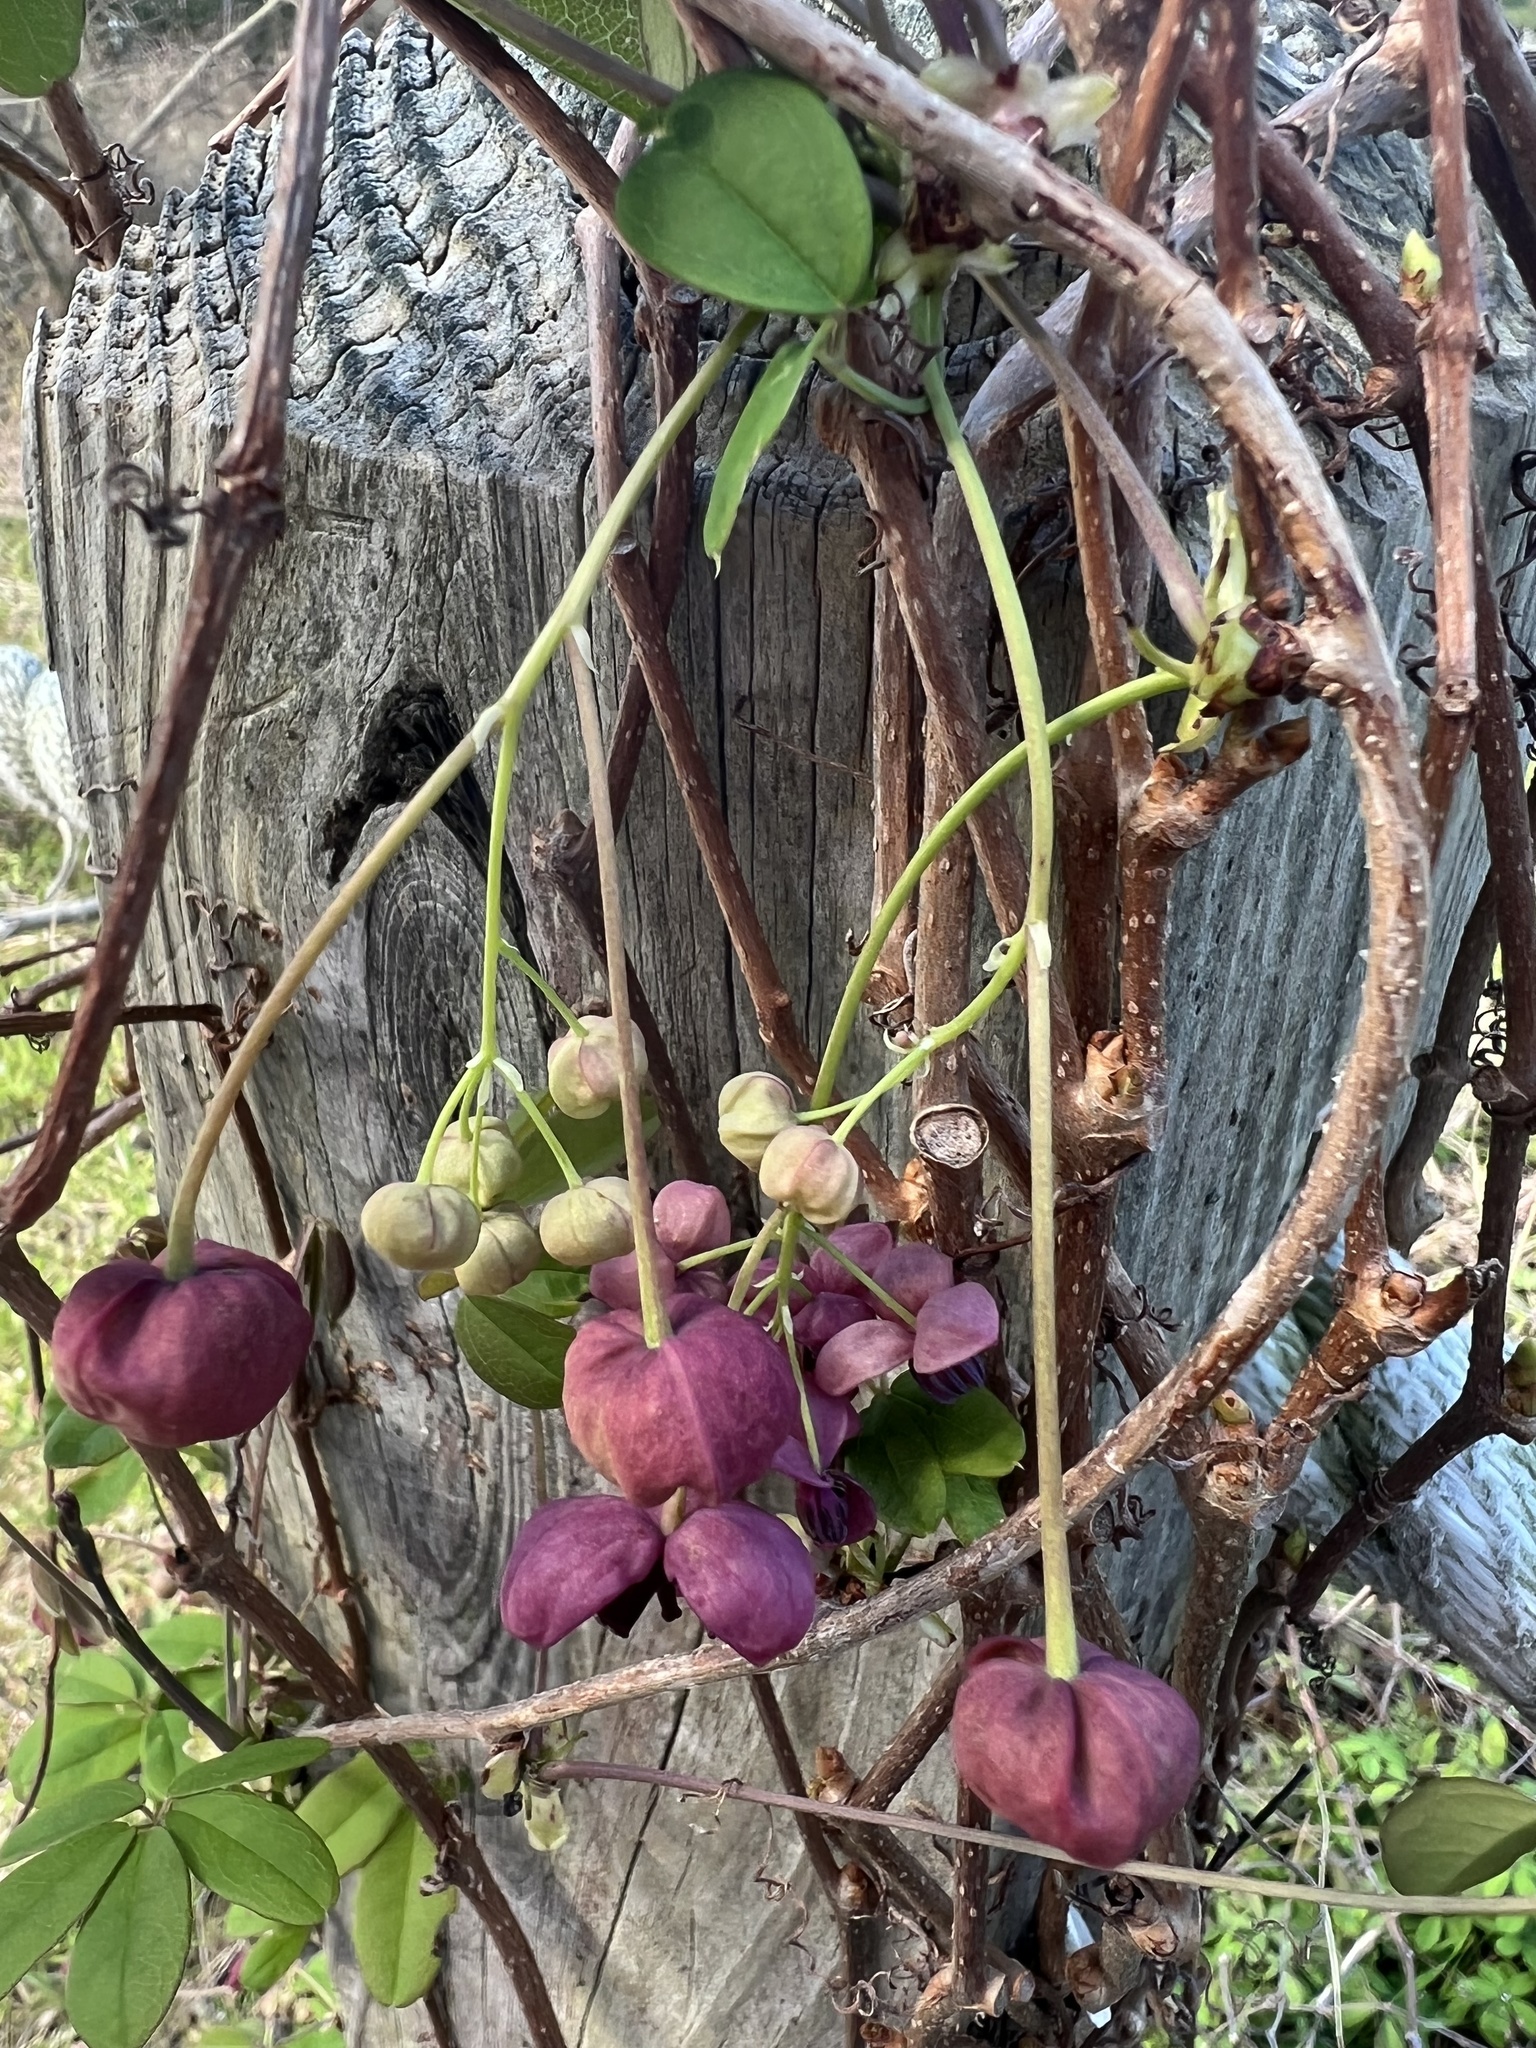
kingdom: Plantae
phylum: Tracheophyta
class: Magnoliopsida
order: Ranunculales
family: Lardizabalaceae
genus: Akebia
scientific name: Akebia quinata
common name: Five-leaf akebia
